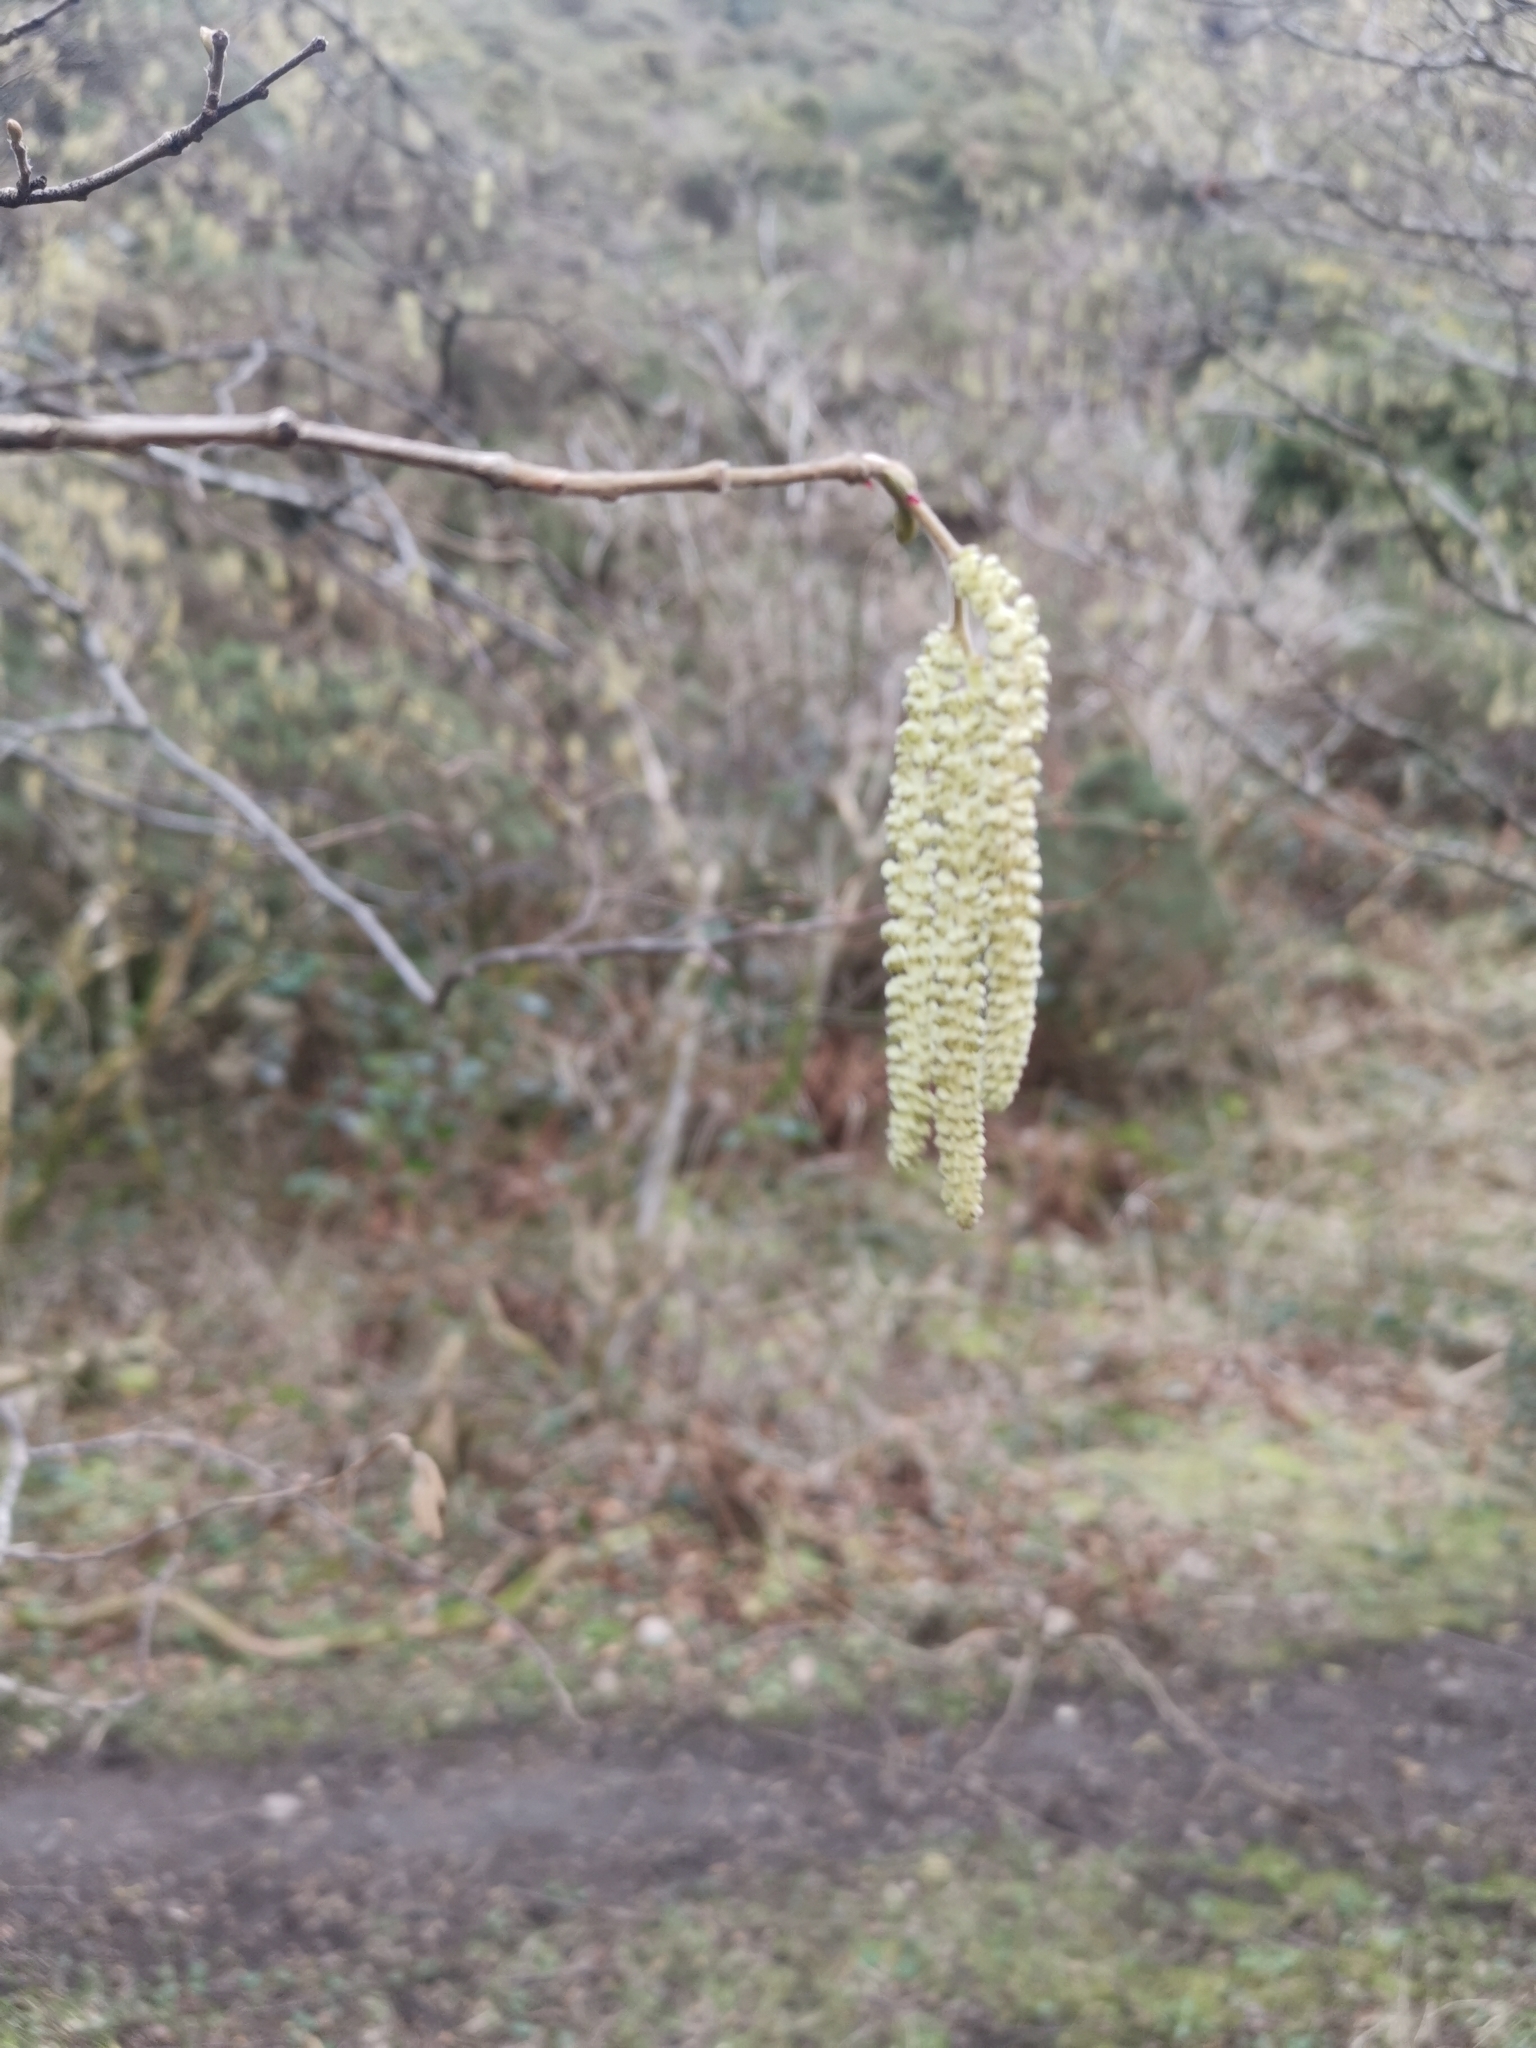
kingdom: Plantae
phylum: Tracheophyta
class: Magnoliopsida
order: Fagales
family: Betulaceae
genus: Corylus
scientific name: Corylus avellana
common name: European hazel
